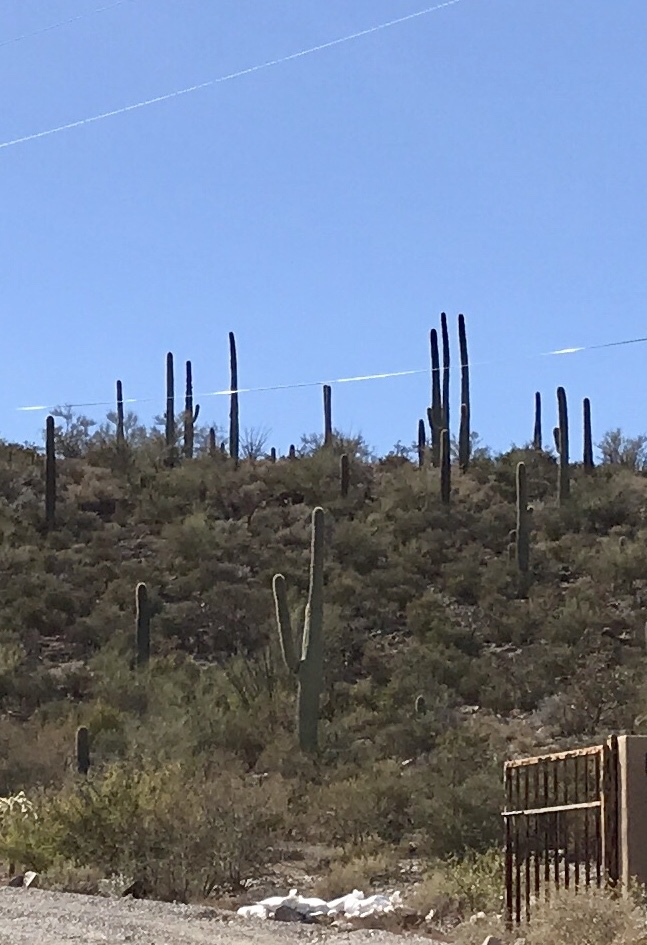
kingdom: Plantae
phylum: Tracheophyta
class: Magnoliopsida
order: Caryophyllales
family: Cactaceae
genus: Carnegiea
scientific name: Carnegiea gigantea
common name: Saguaro
